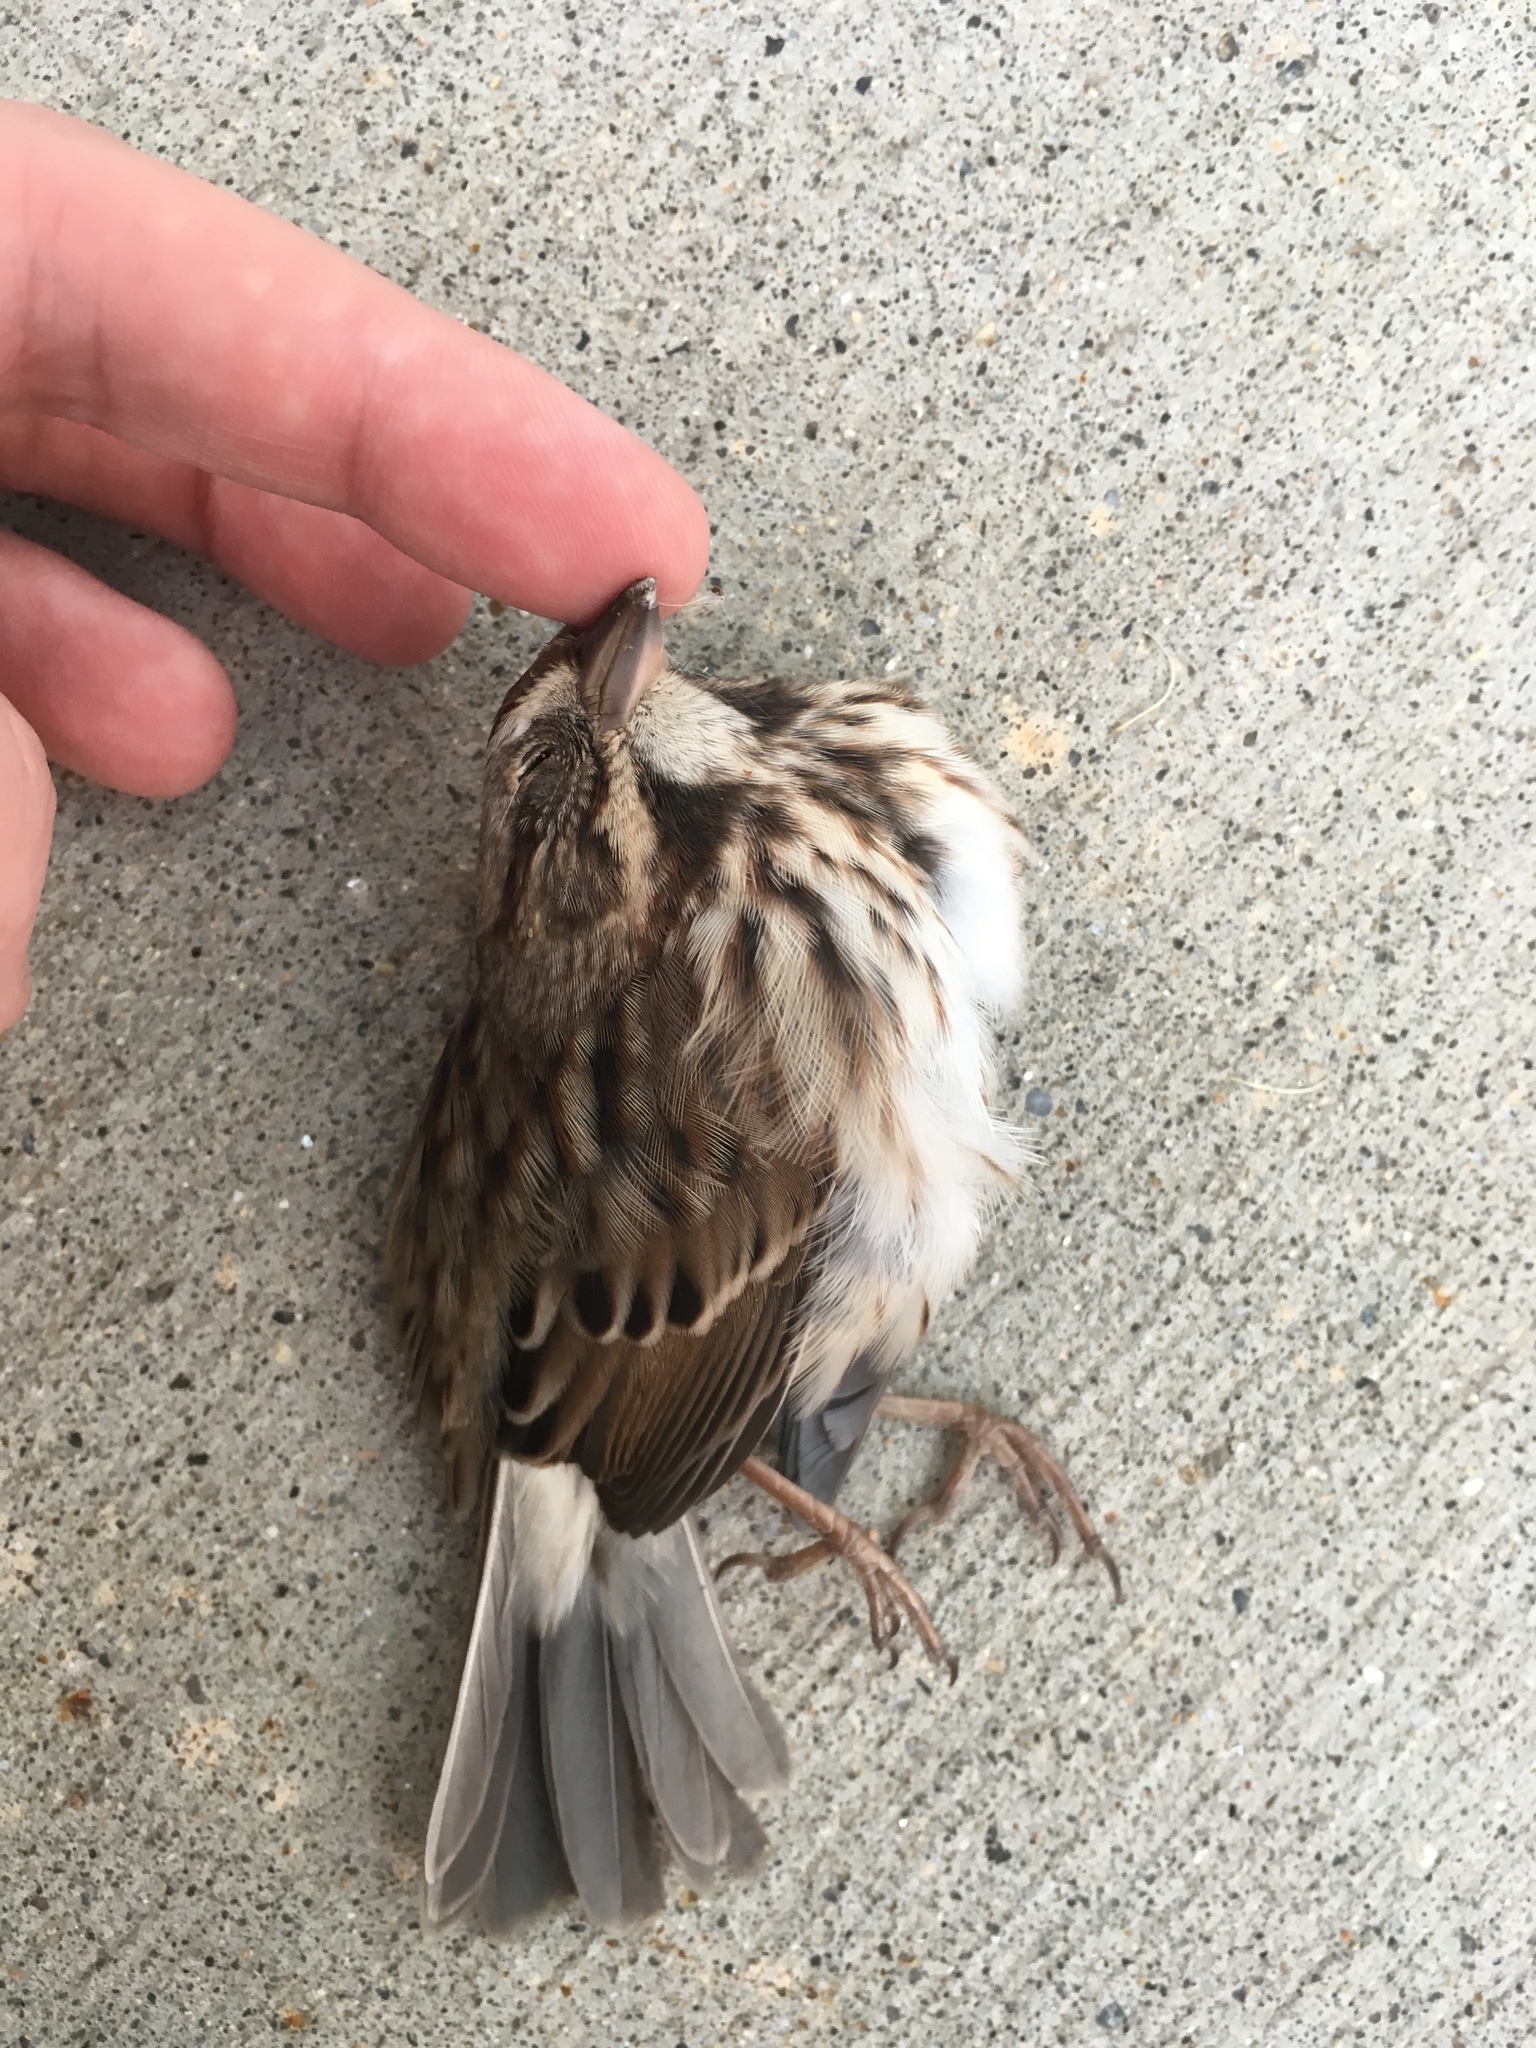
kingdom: Animalia
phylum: Chordata
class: Aves
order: Passeriformes
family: Passerellidae
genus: Melospiza
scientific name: Melospiza melodia
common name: Song sparrow
